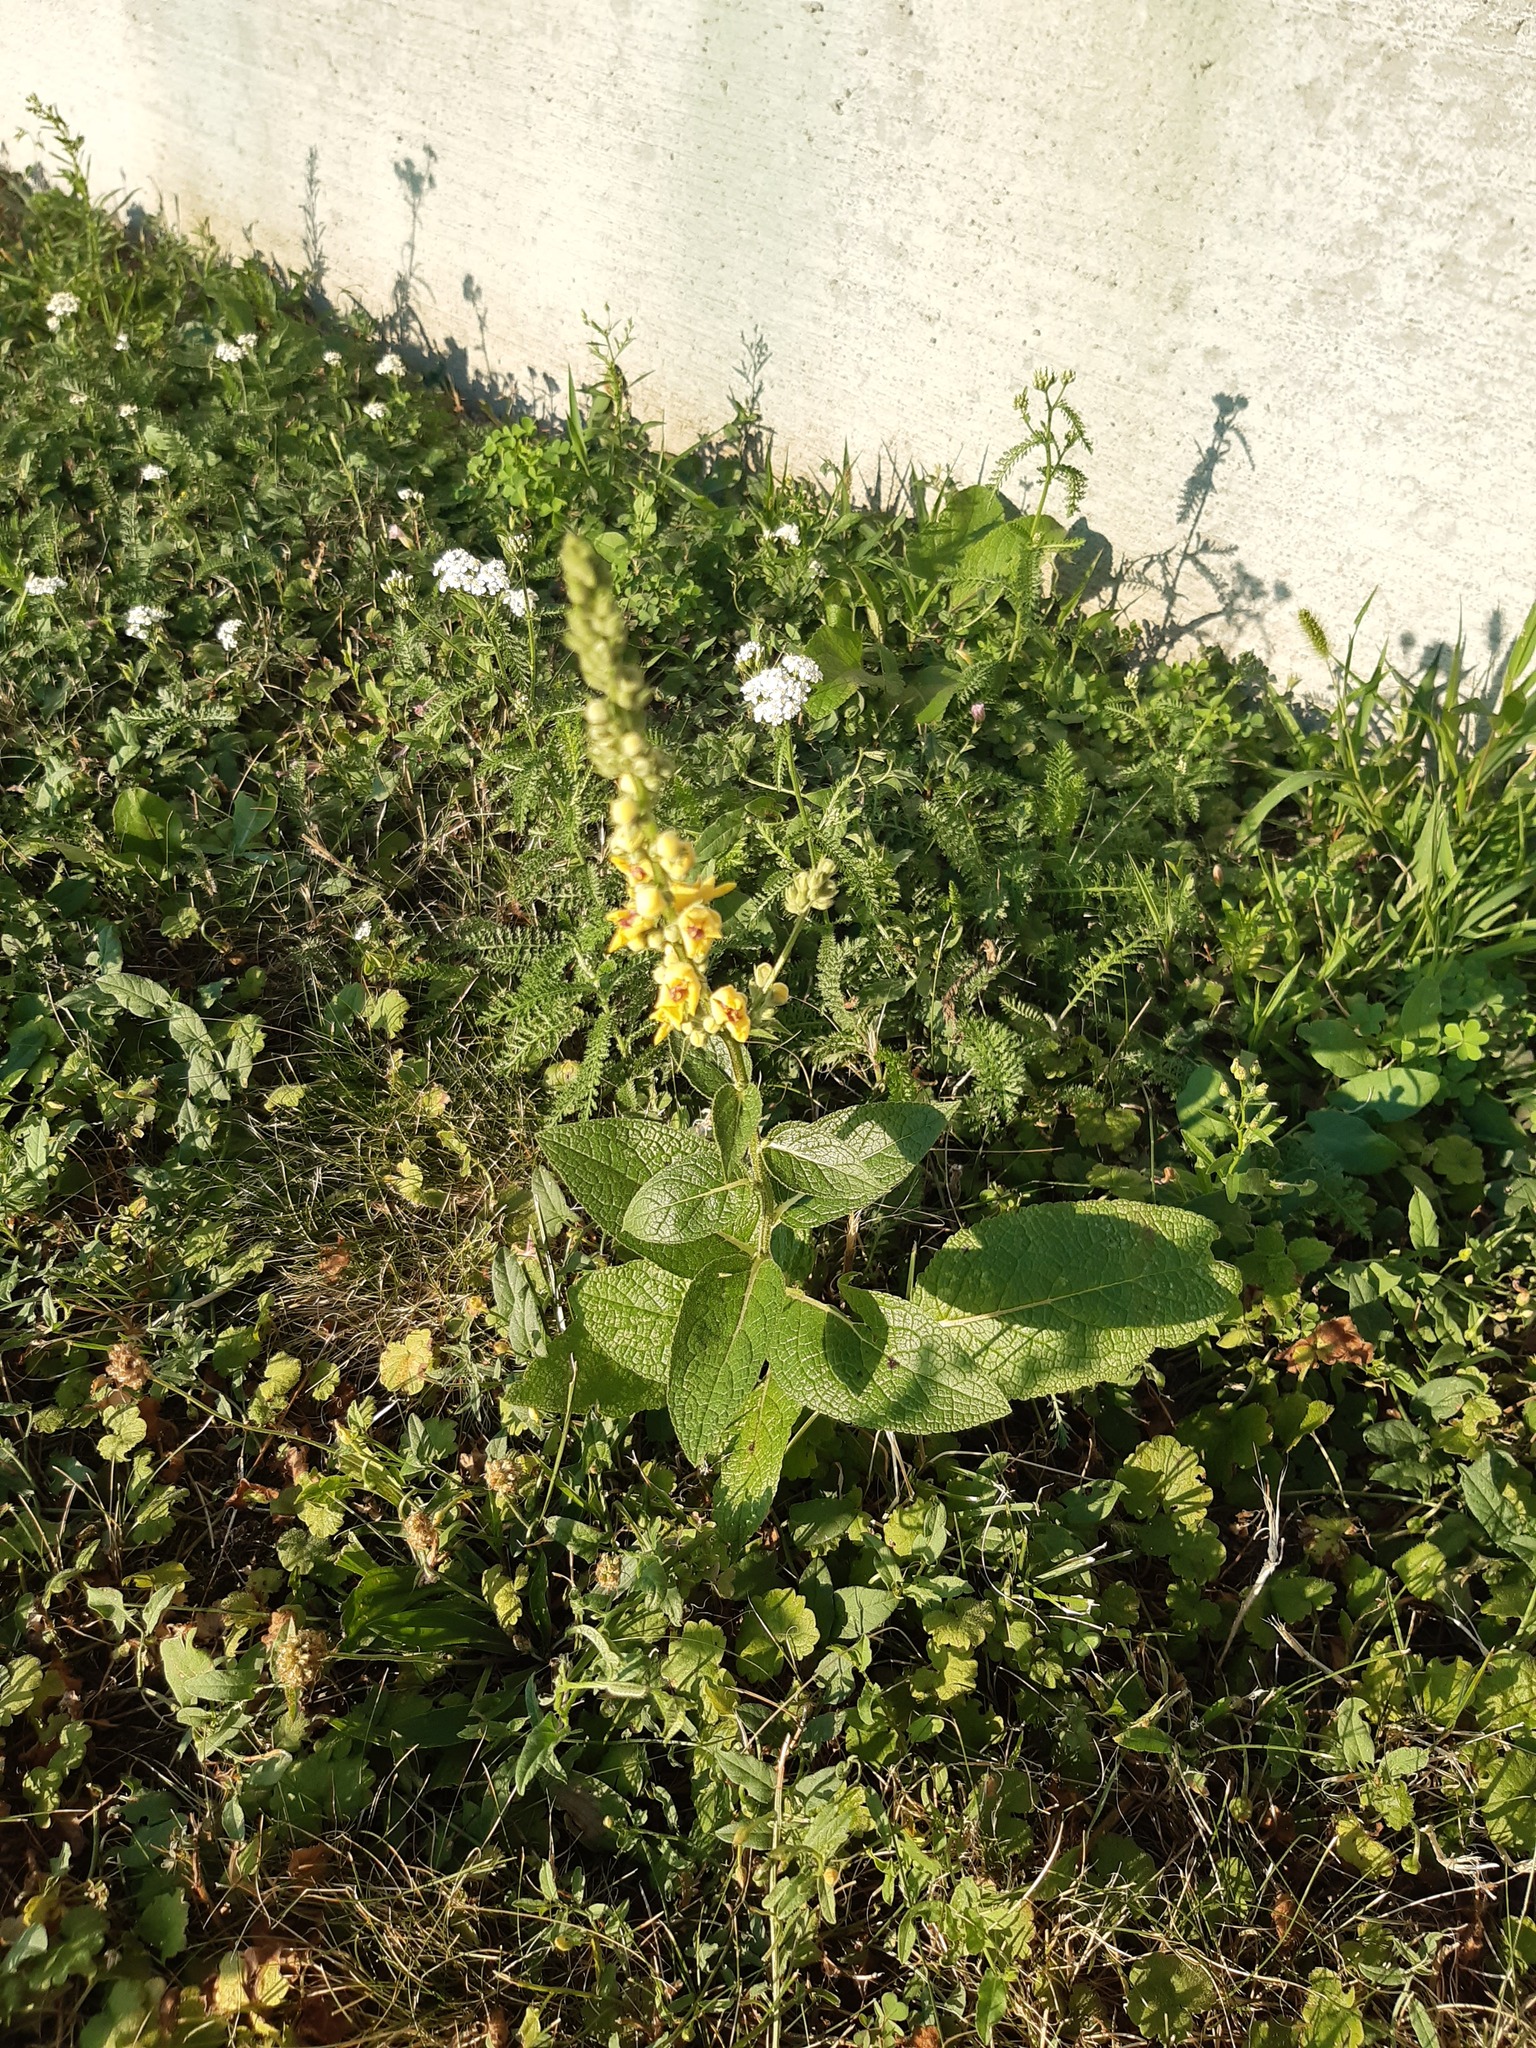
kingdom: Plantae
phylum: Tracheophyta
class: Magnoliopsida
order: Lamiales
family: Scrophulariaceae
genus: Verbascum
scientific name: Verbascum chaixii
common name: Nettle-leaved mullein
